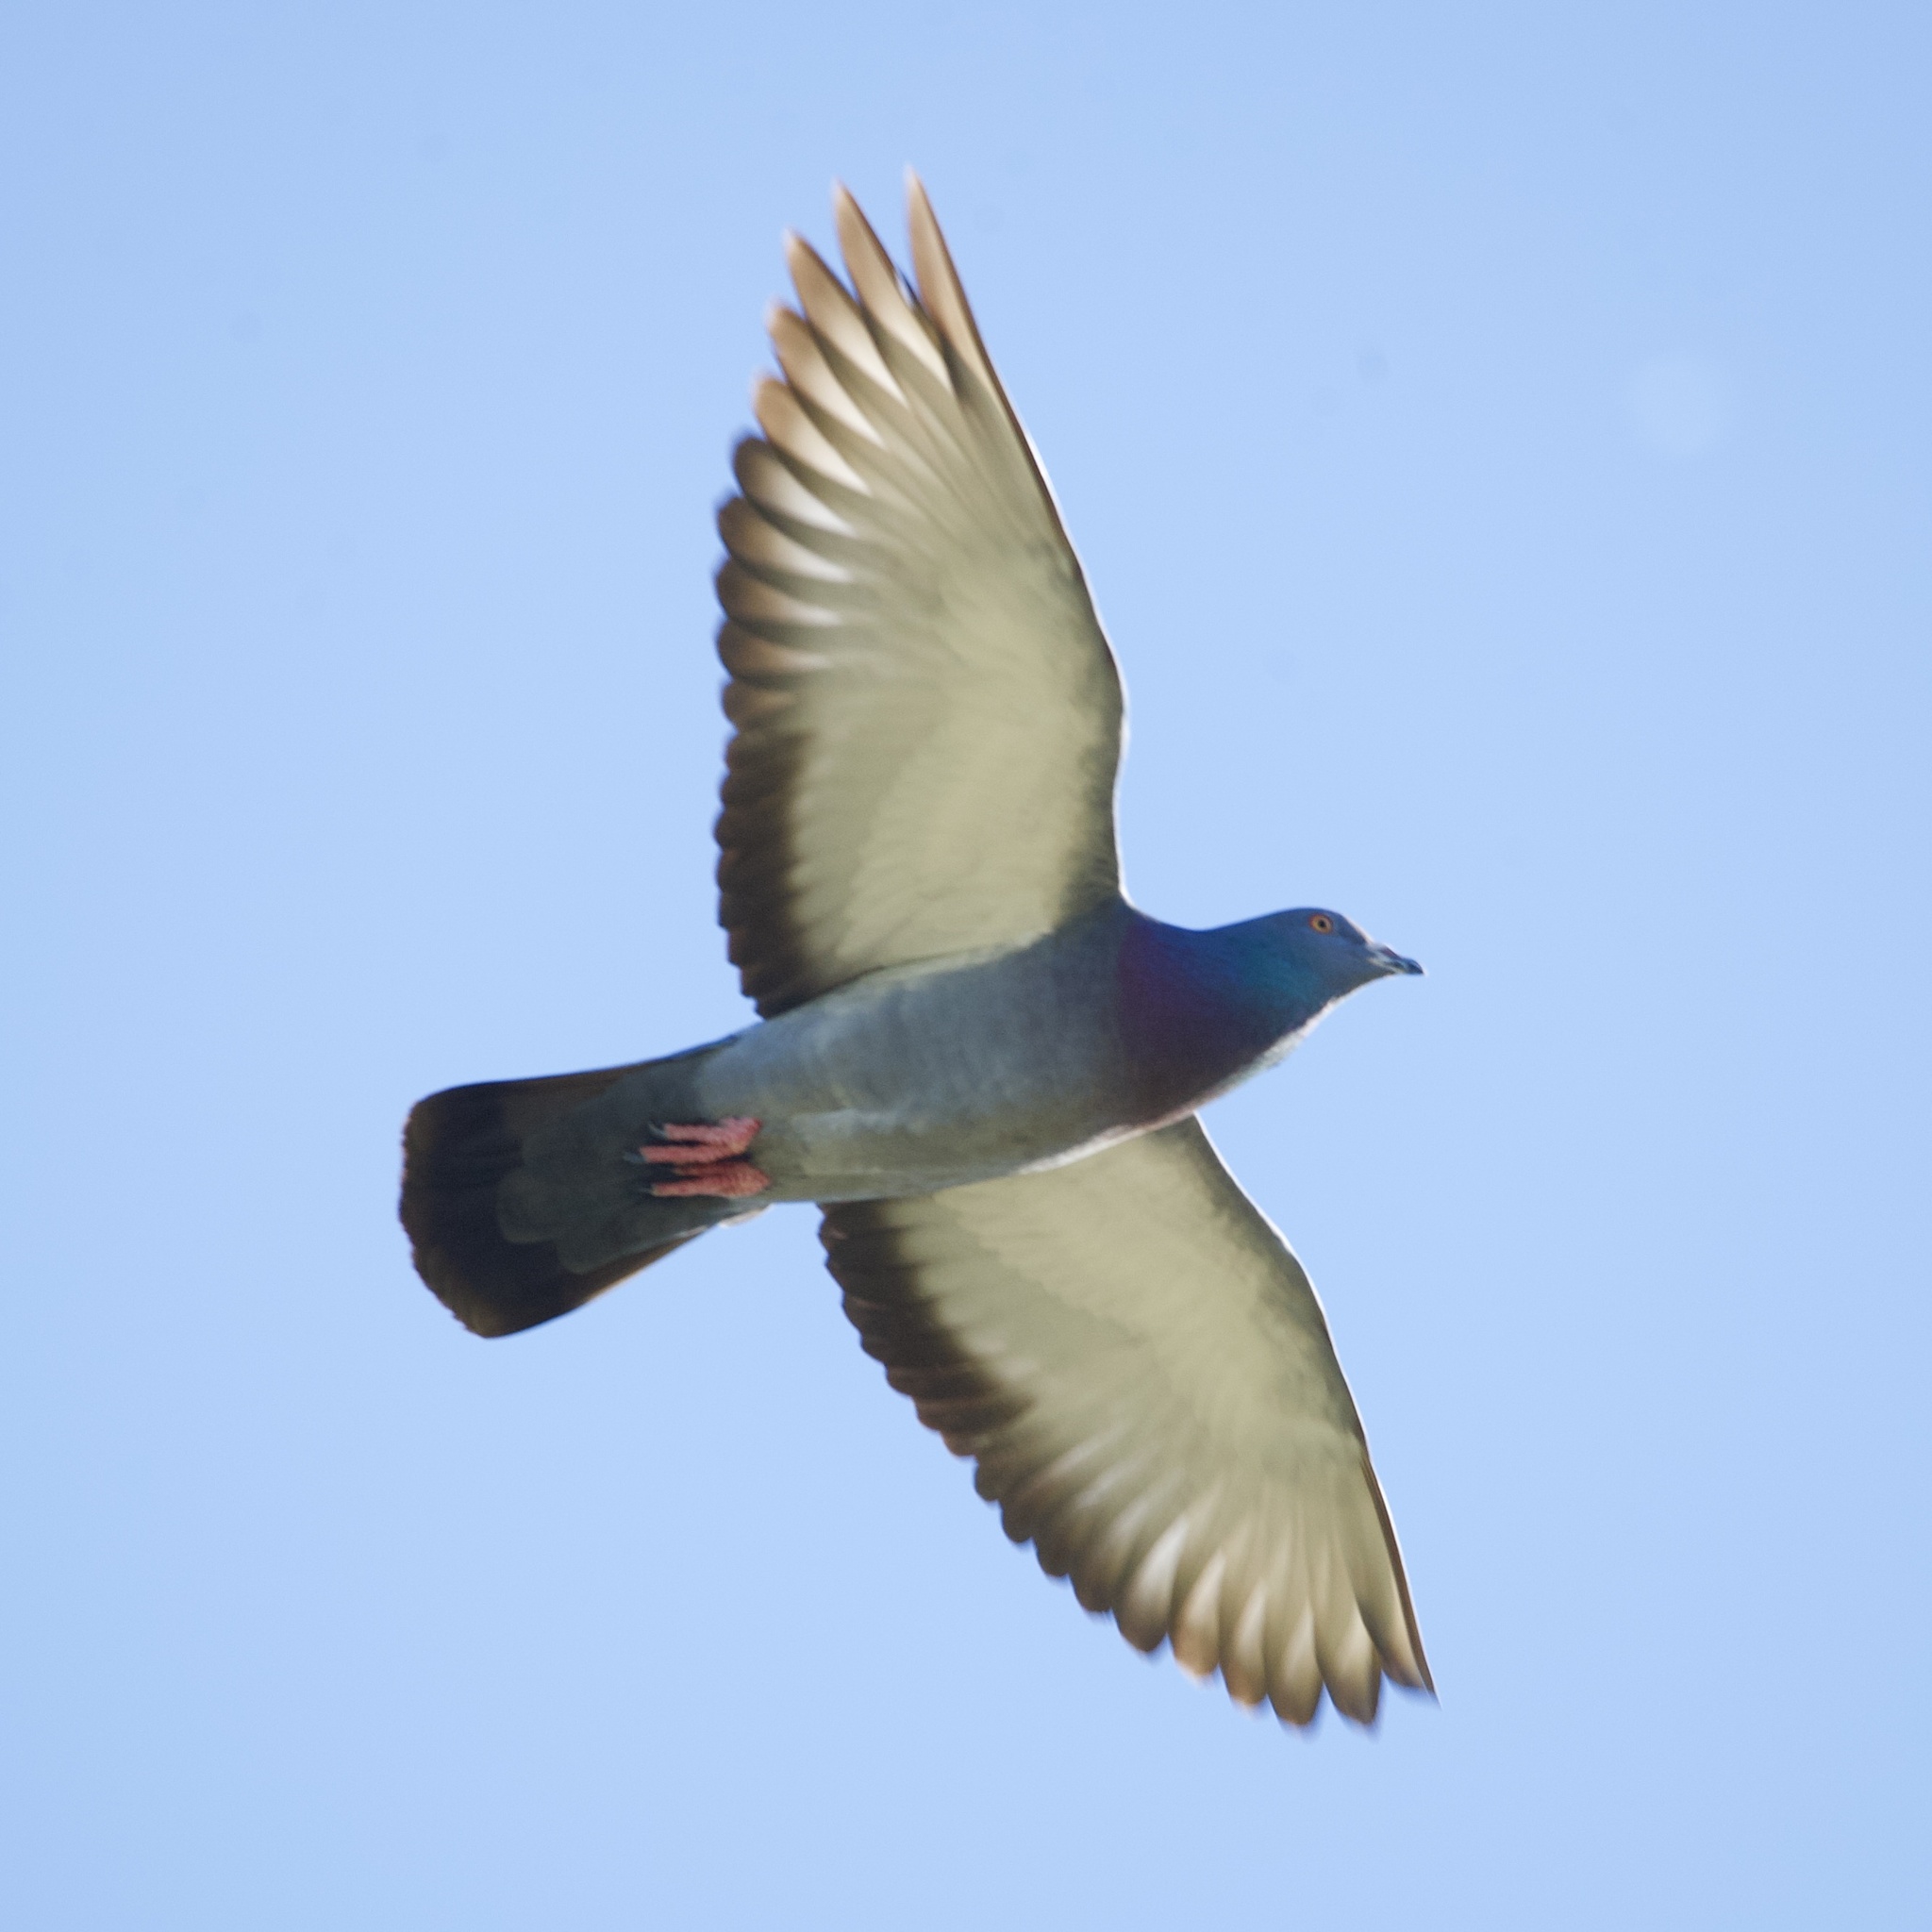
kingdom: Animalia
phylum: Chordata
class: Aves
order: Columbiformes
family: Columbidae
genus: Columba
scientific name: Columba livia
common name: Rock pigeon
